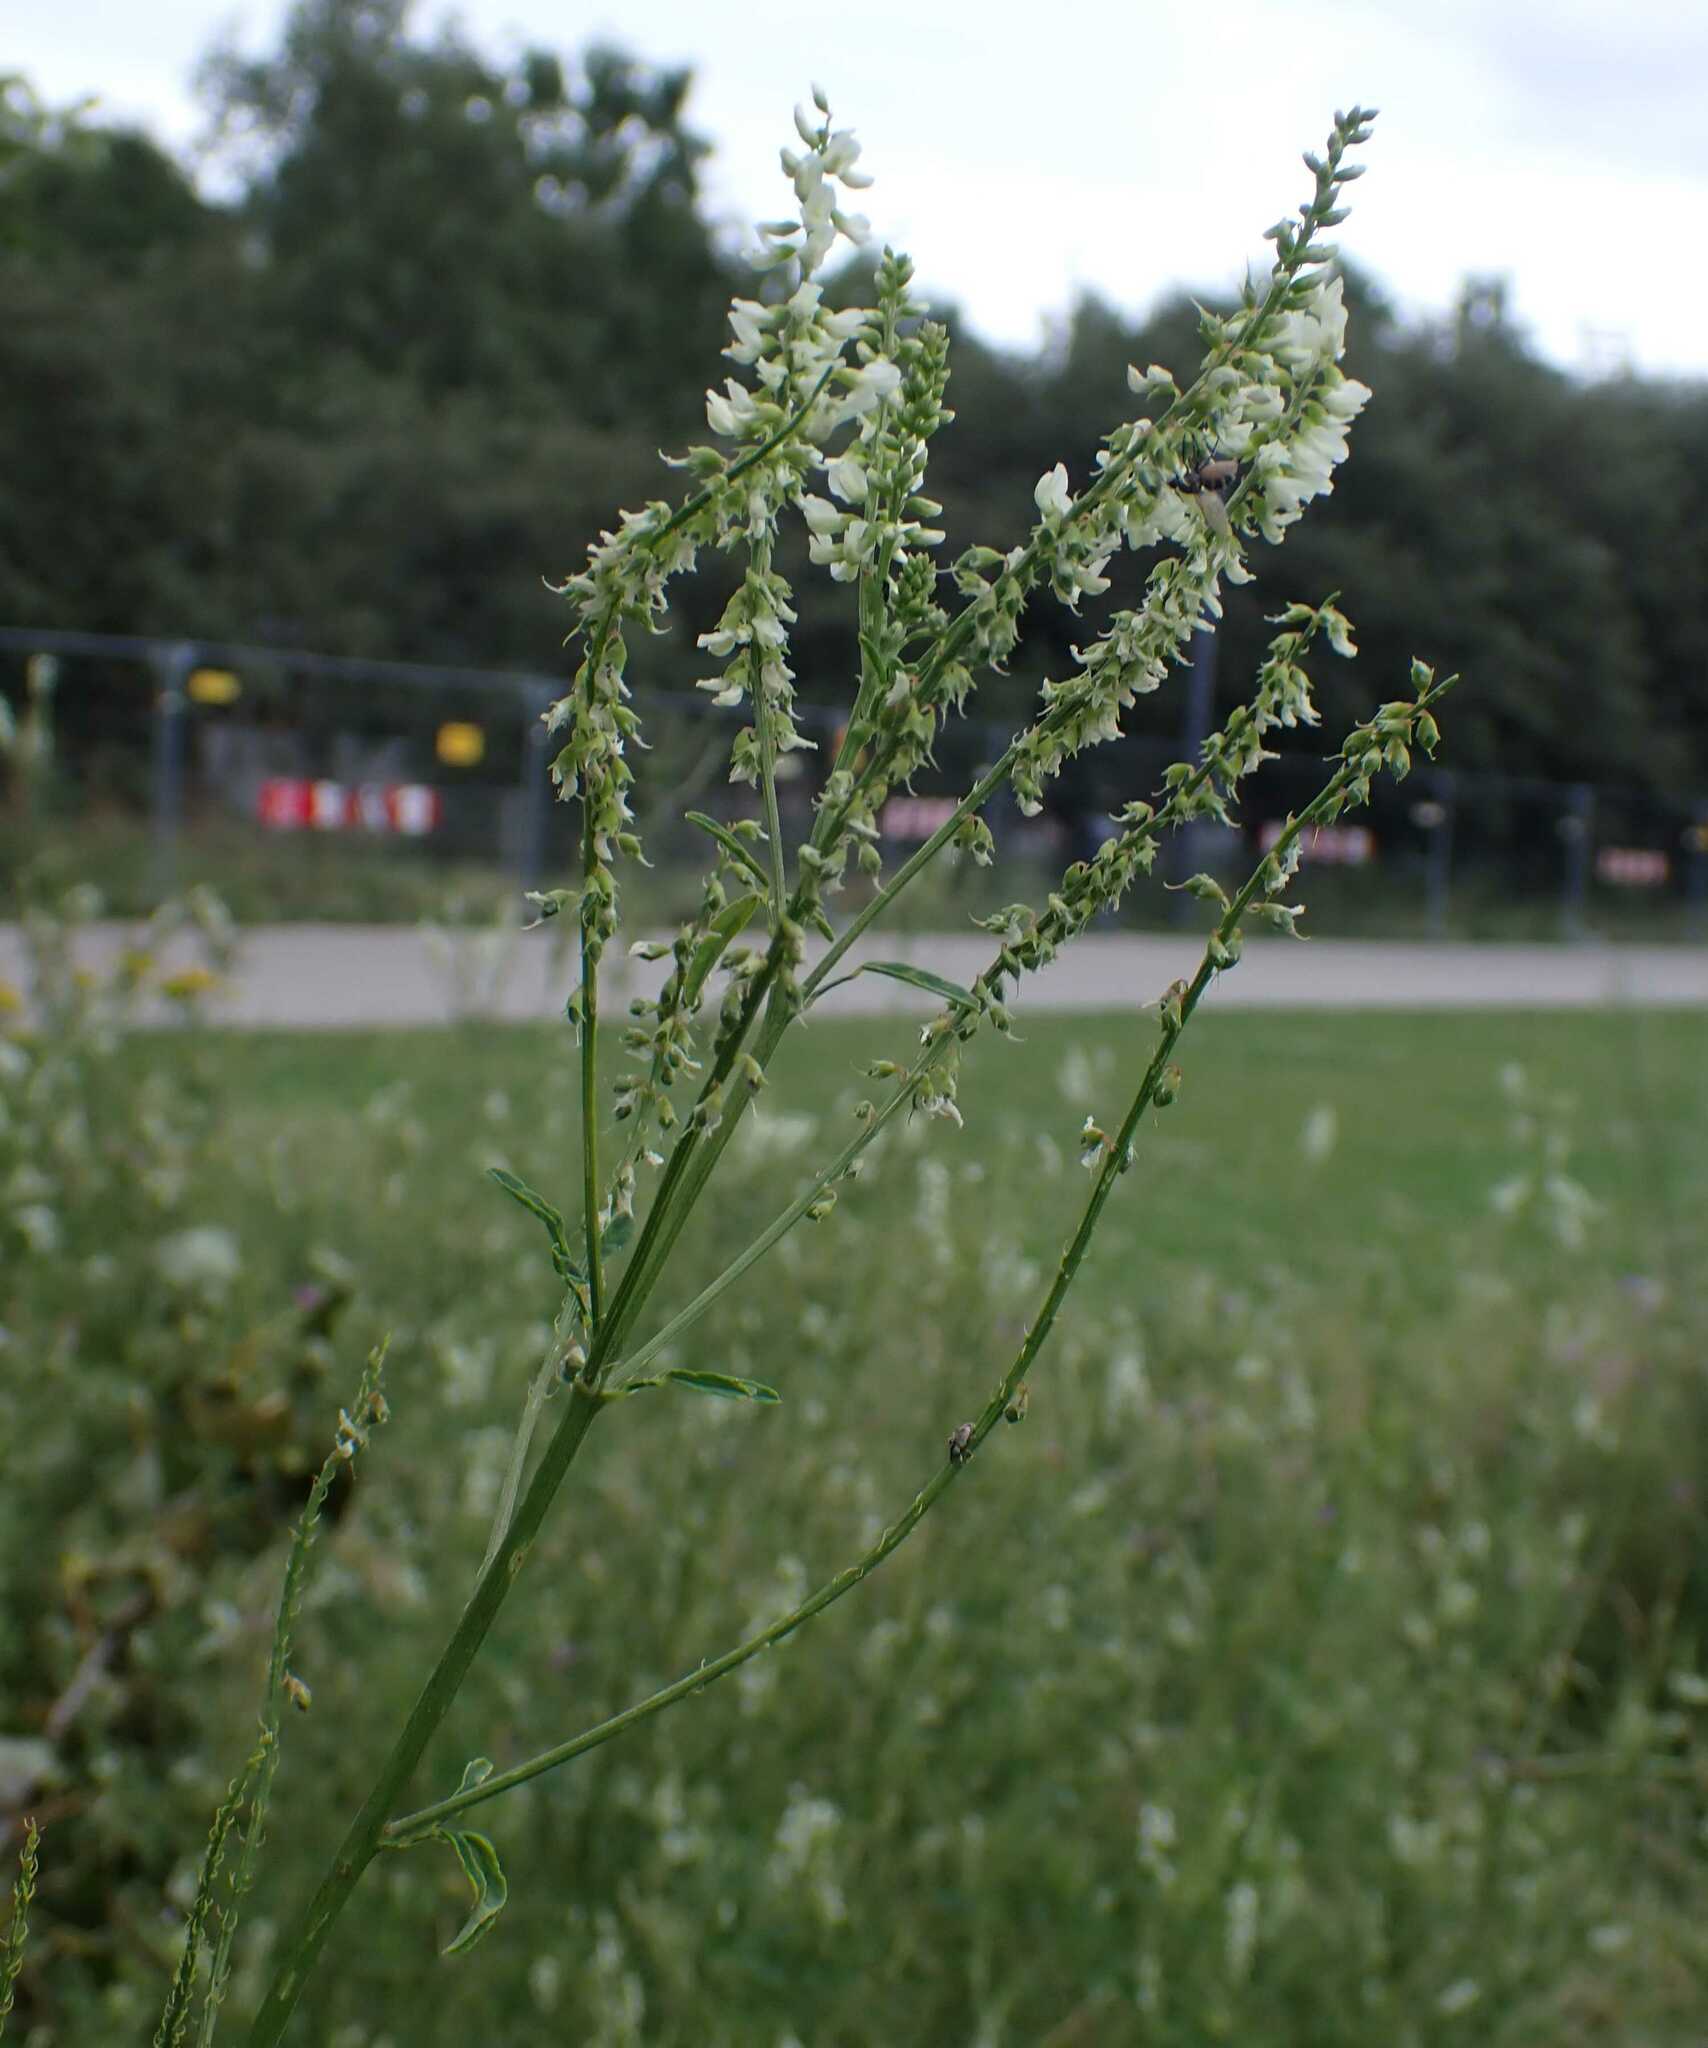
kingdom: Plantae
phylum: Tracheophyta
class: Magnoliopsida
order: Fabales
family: Fabaceae
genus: Melilotus
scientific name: Melilotus albus
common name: White melilot
